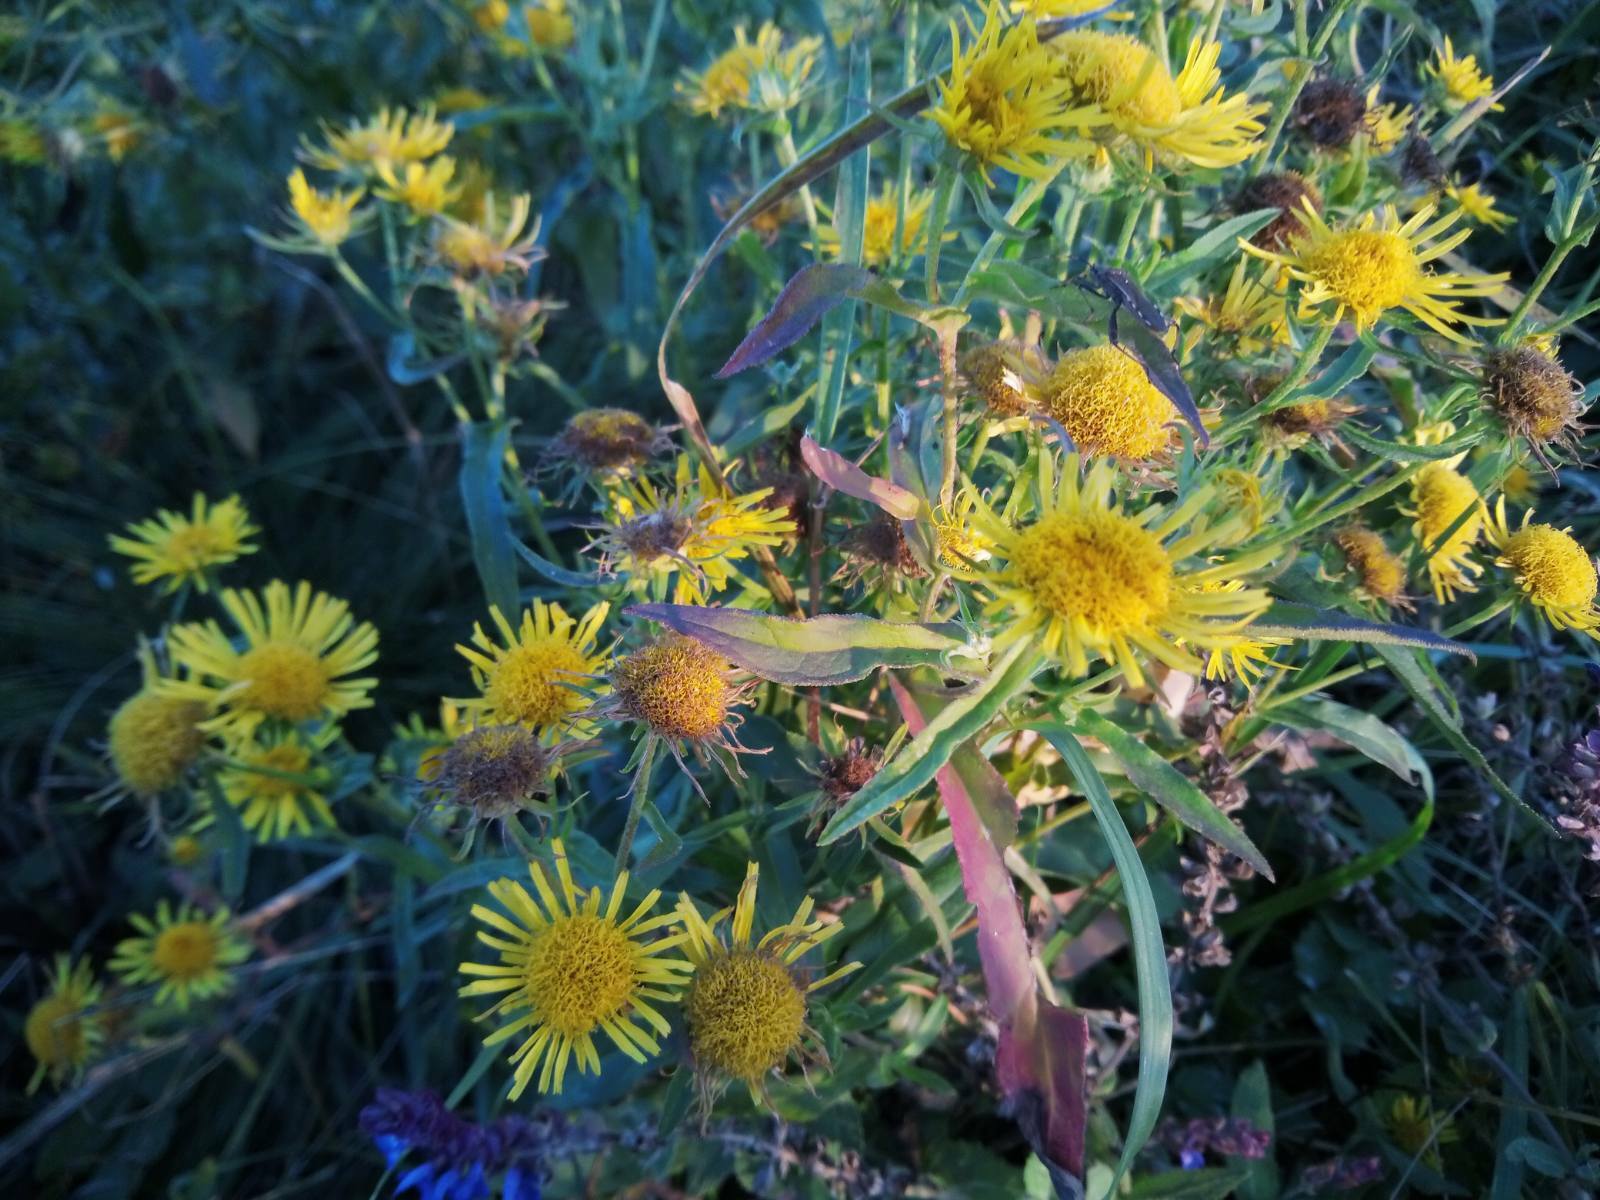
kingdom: Plantae
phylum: Tracheophyta
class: Magnoliopsida
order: Asterales
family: Asteraceae
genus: Pentanema
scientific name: Pentanema britannicum
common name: British elecampane
